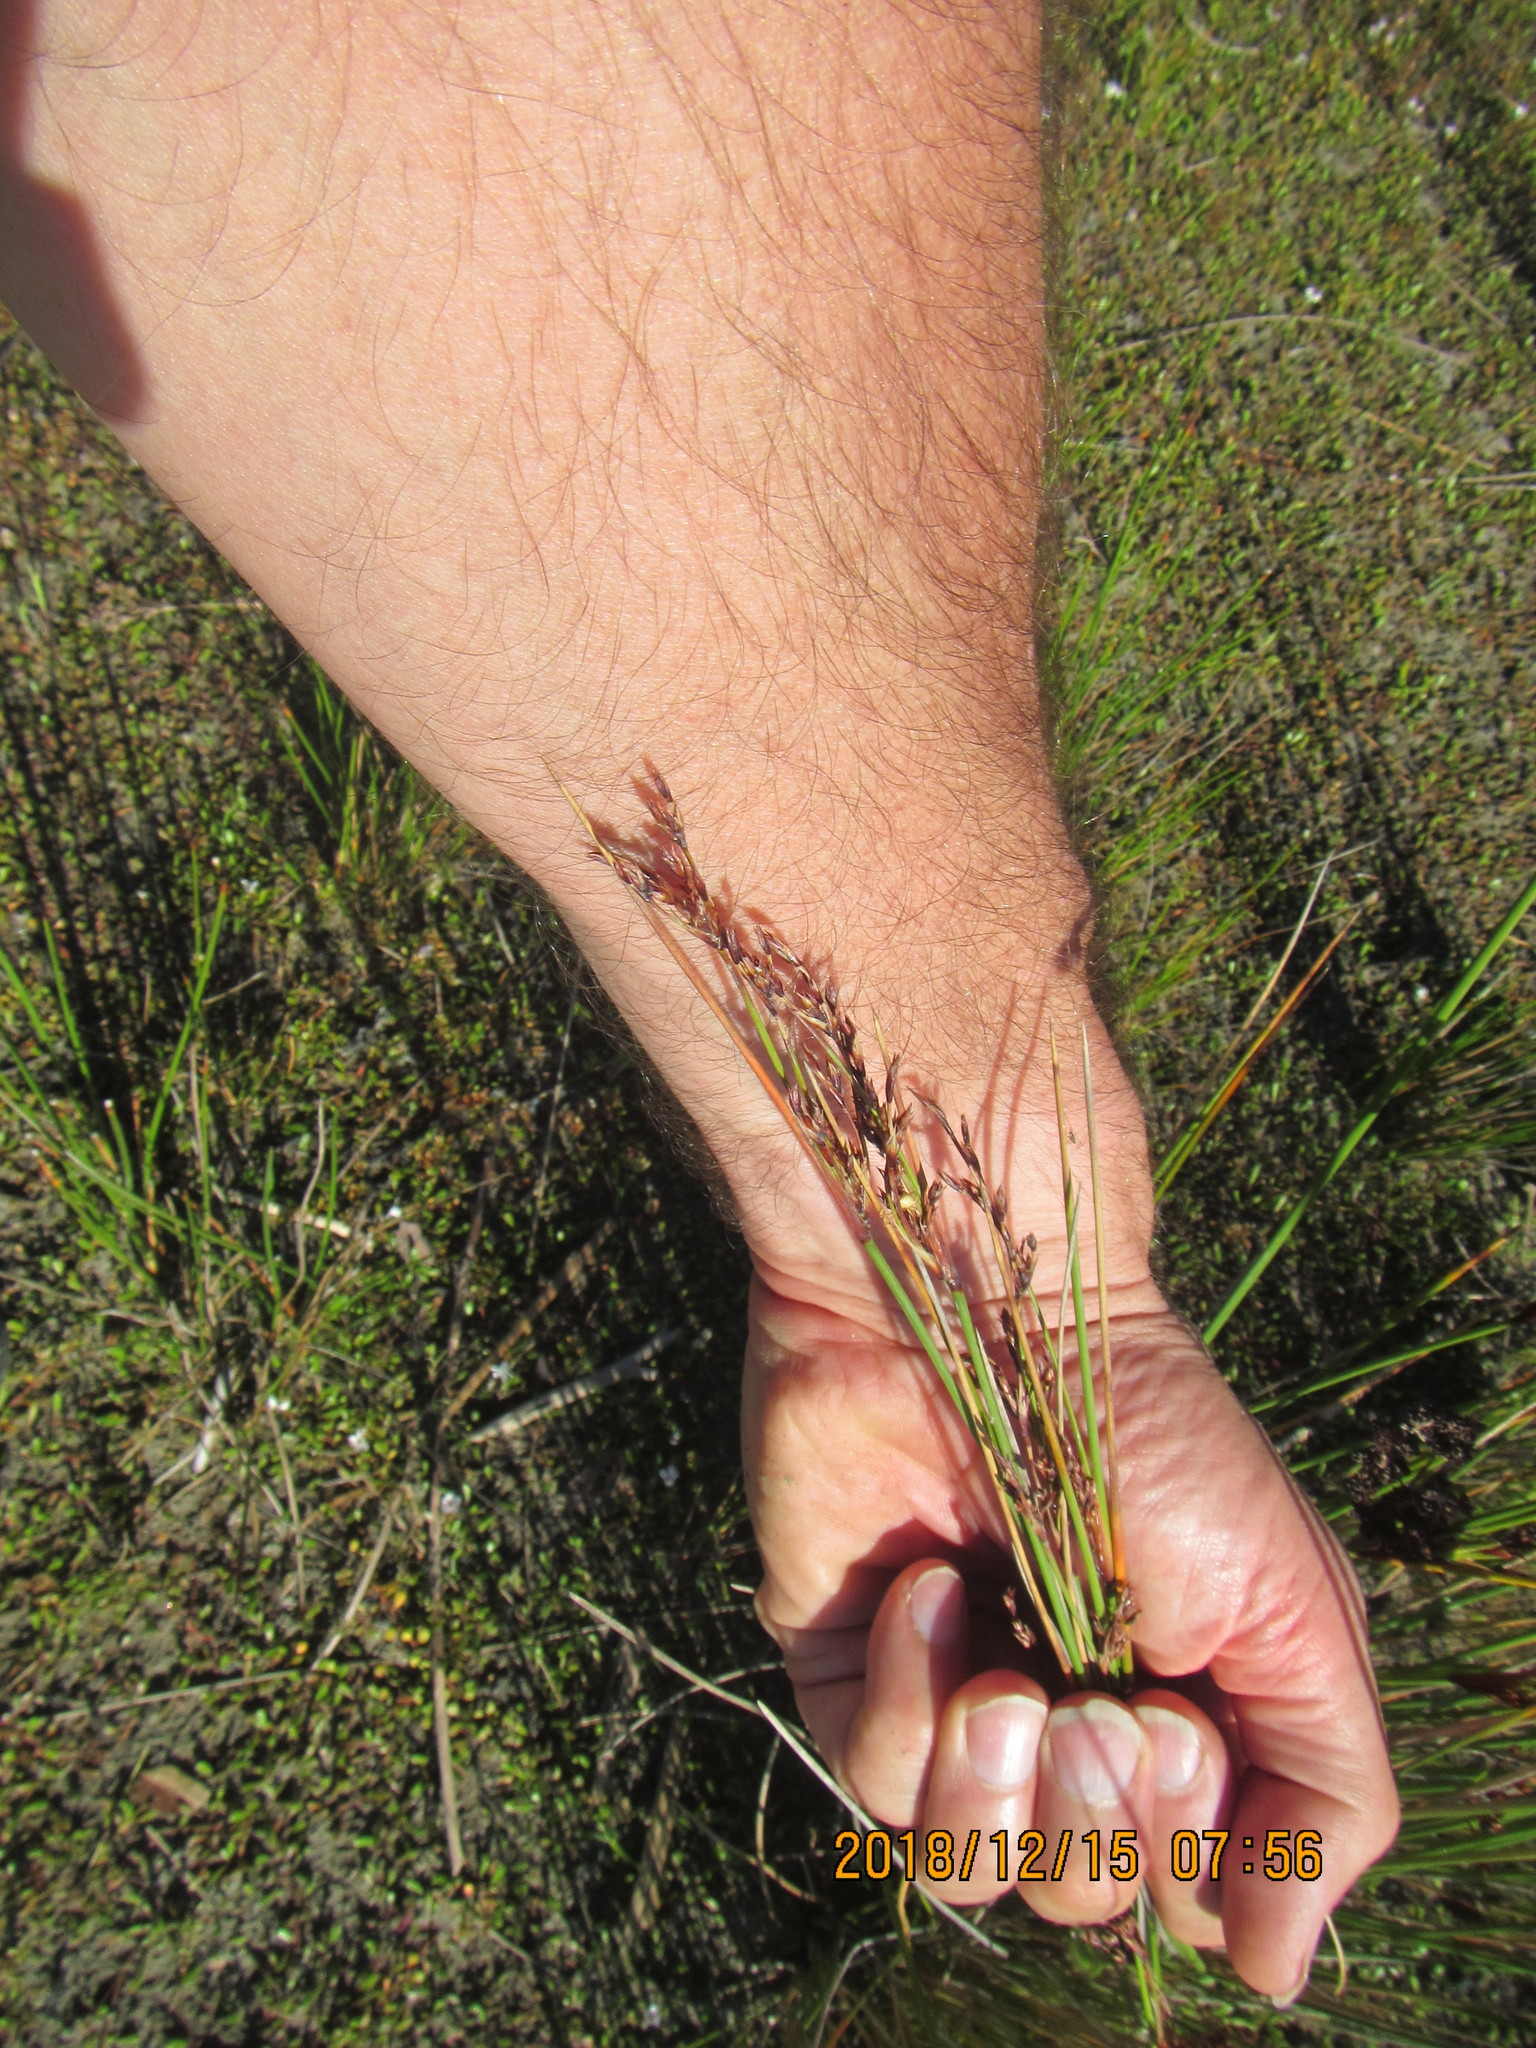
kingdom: Plantae
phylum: Tracheophyta
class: Liliopsida
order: Poales
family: Juncaceae
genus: Juncus
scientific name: Juncus kraussii
